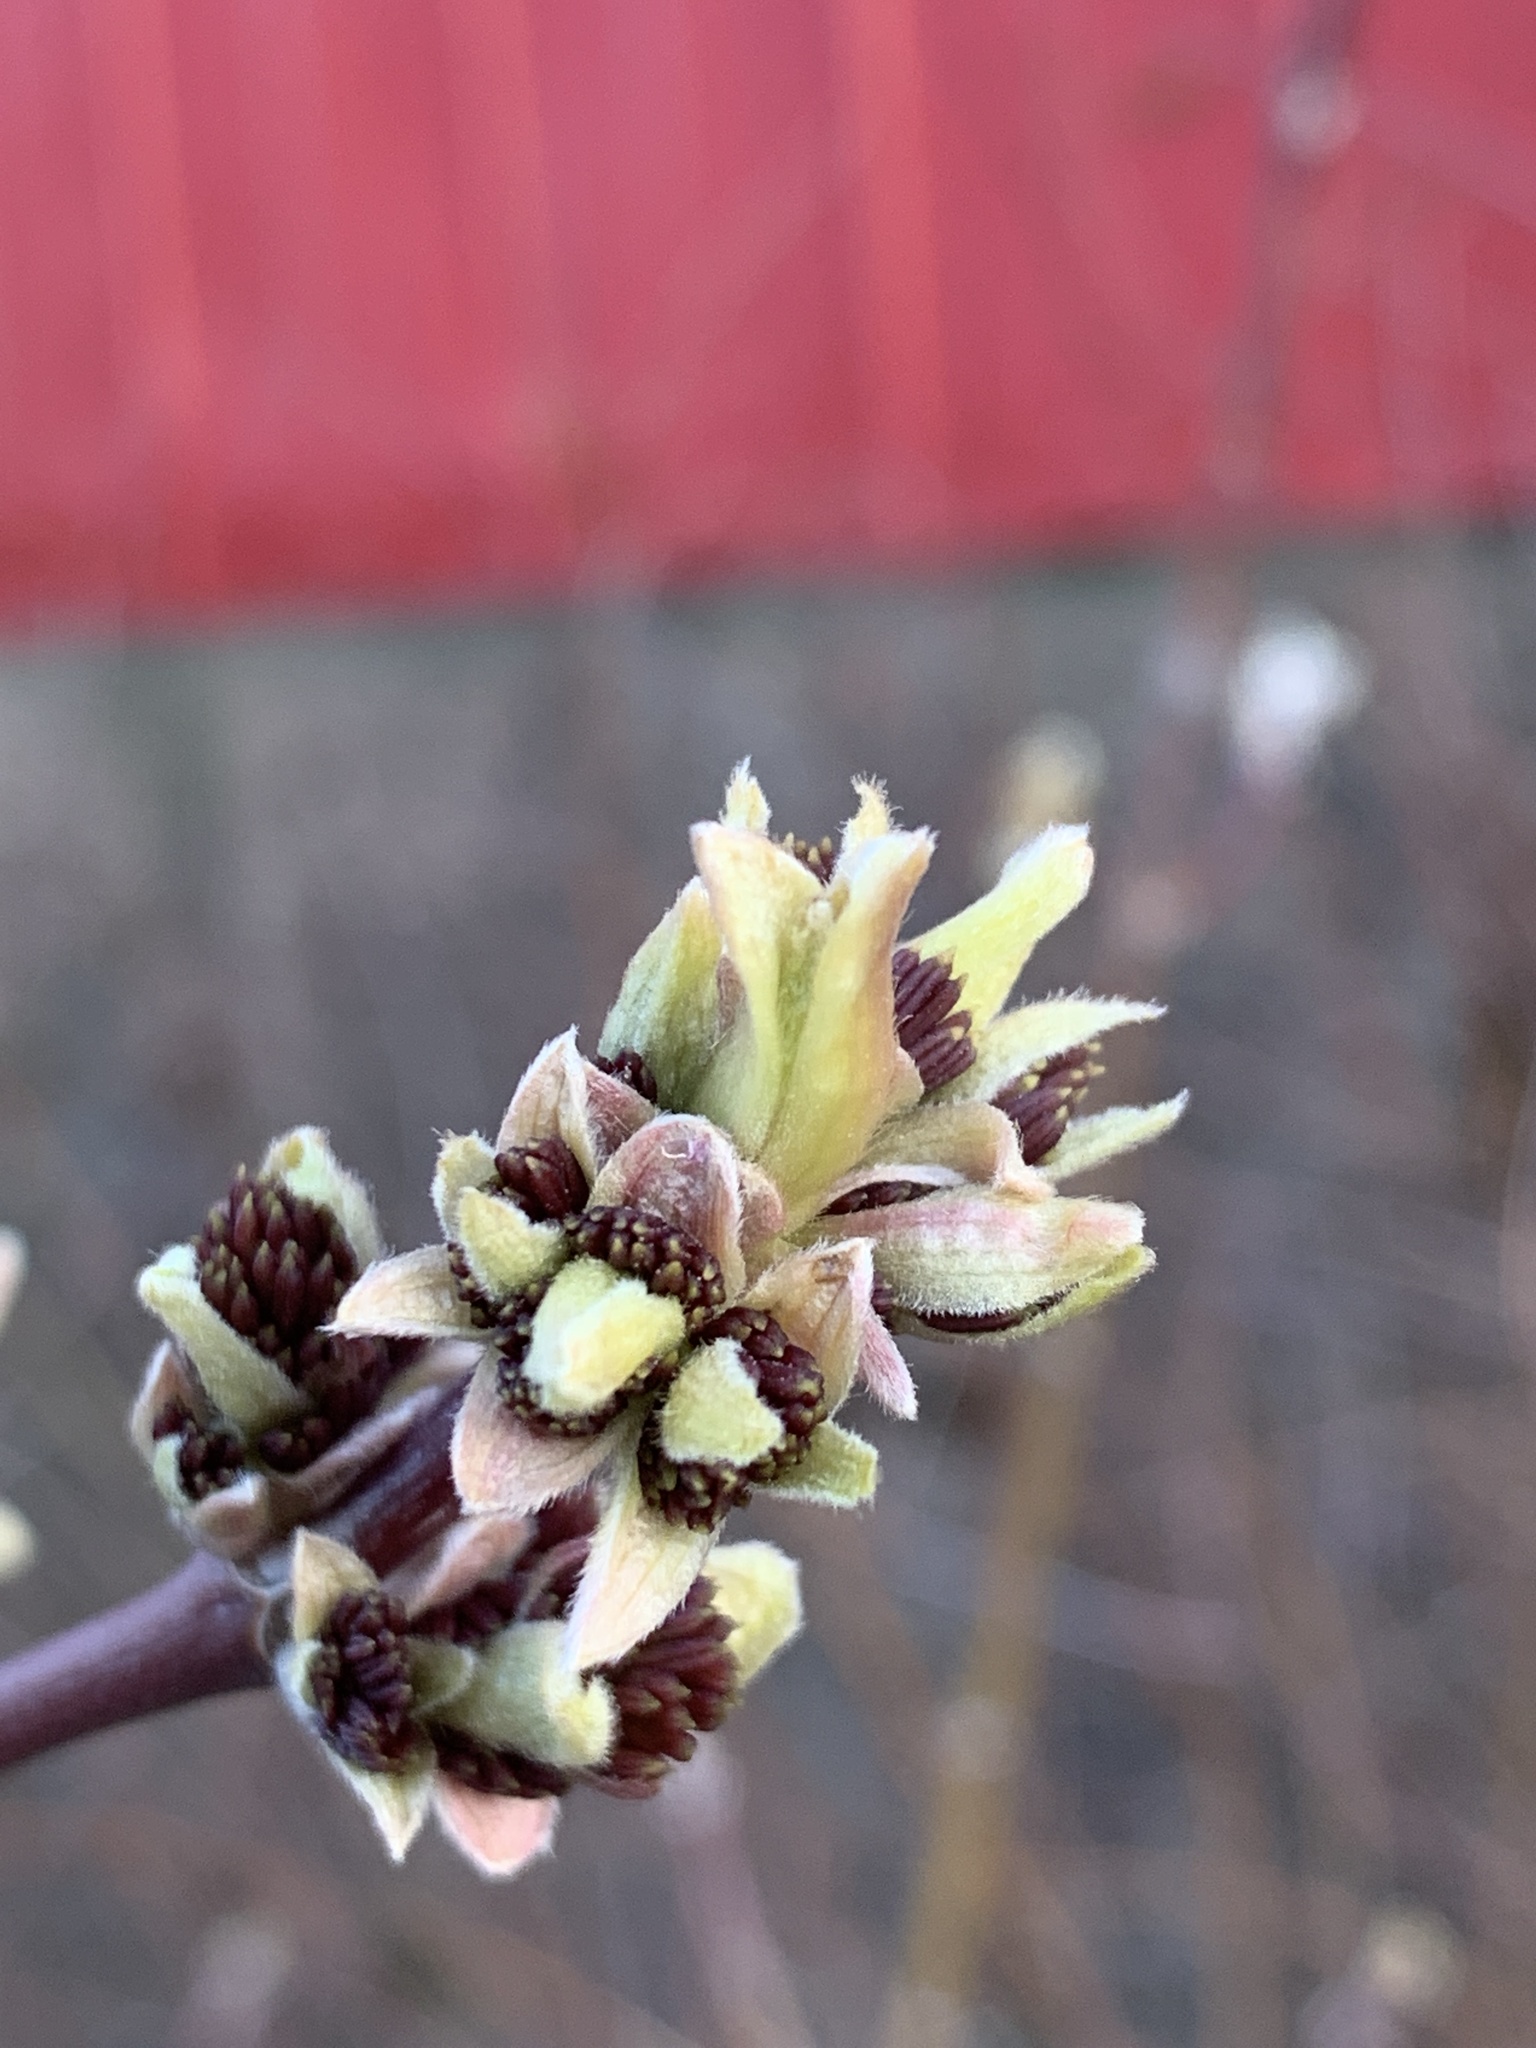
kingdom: Plantae
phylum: Tracheophyta
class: Magnoliopsida
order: Sapindales
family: Sapindaceae
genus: Acer
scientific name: Acer negundo
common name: Ashleaf maple
